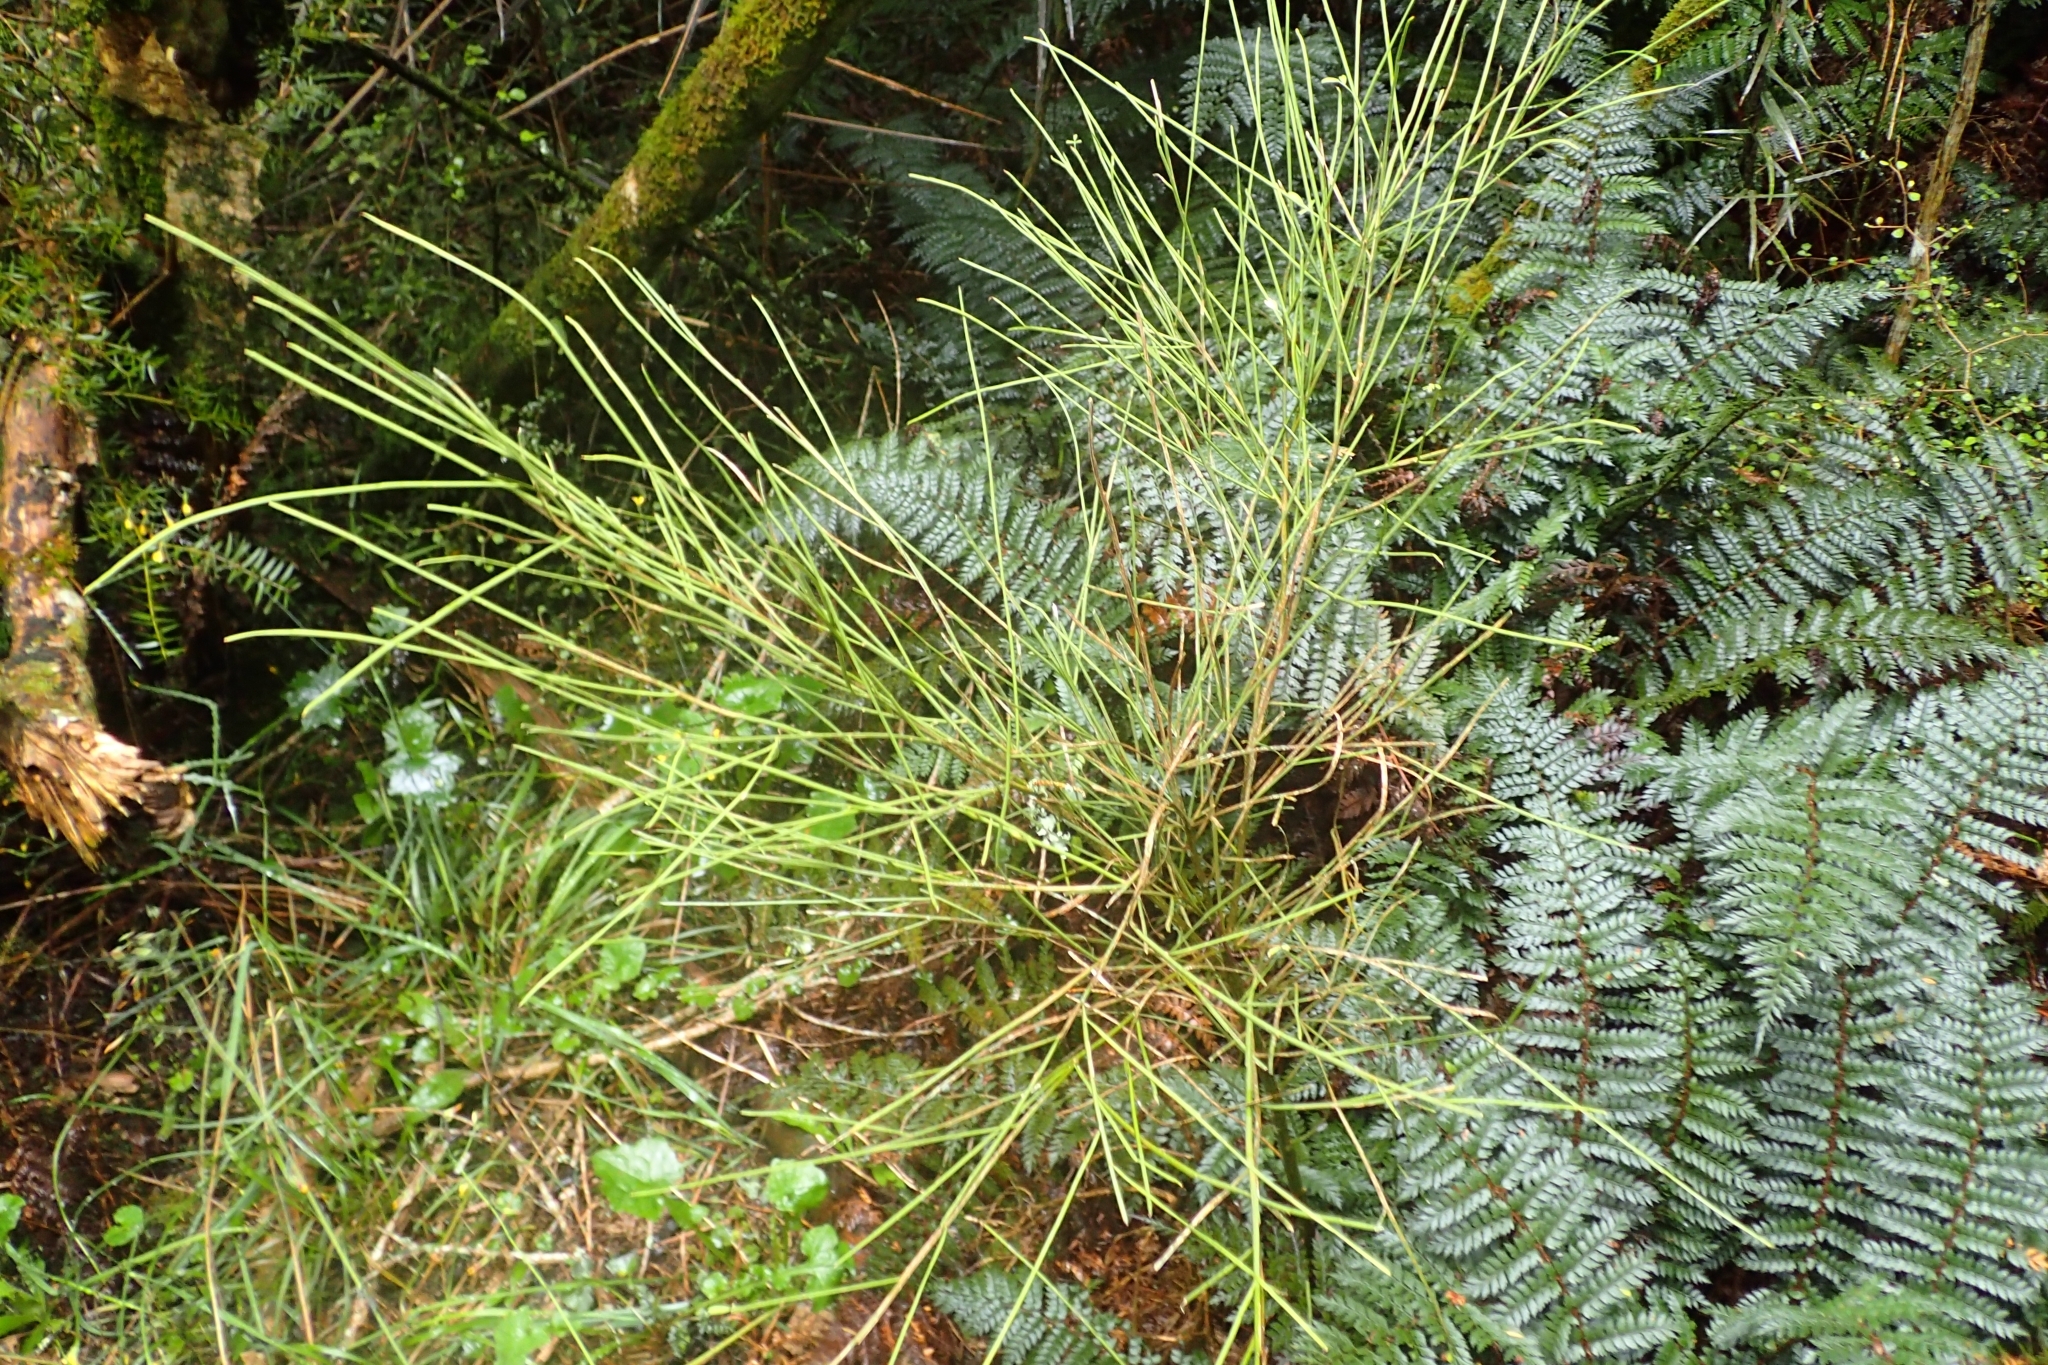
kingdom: Plantae
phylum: Tracheophyta
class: Magnoliopsida
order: Fabales
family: Fabaceae
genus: Carmichaelia
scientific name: Carmichaelia australis
